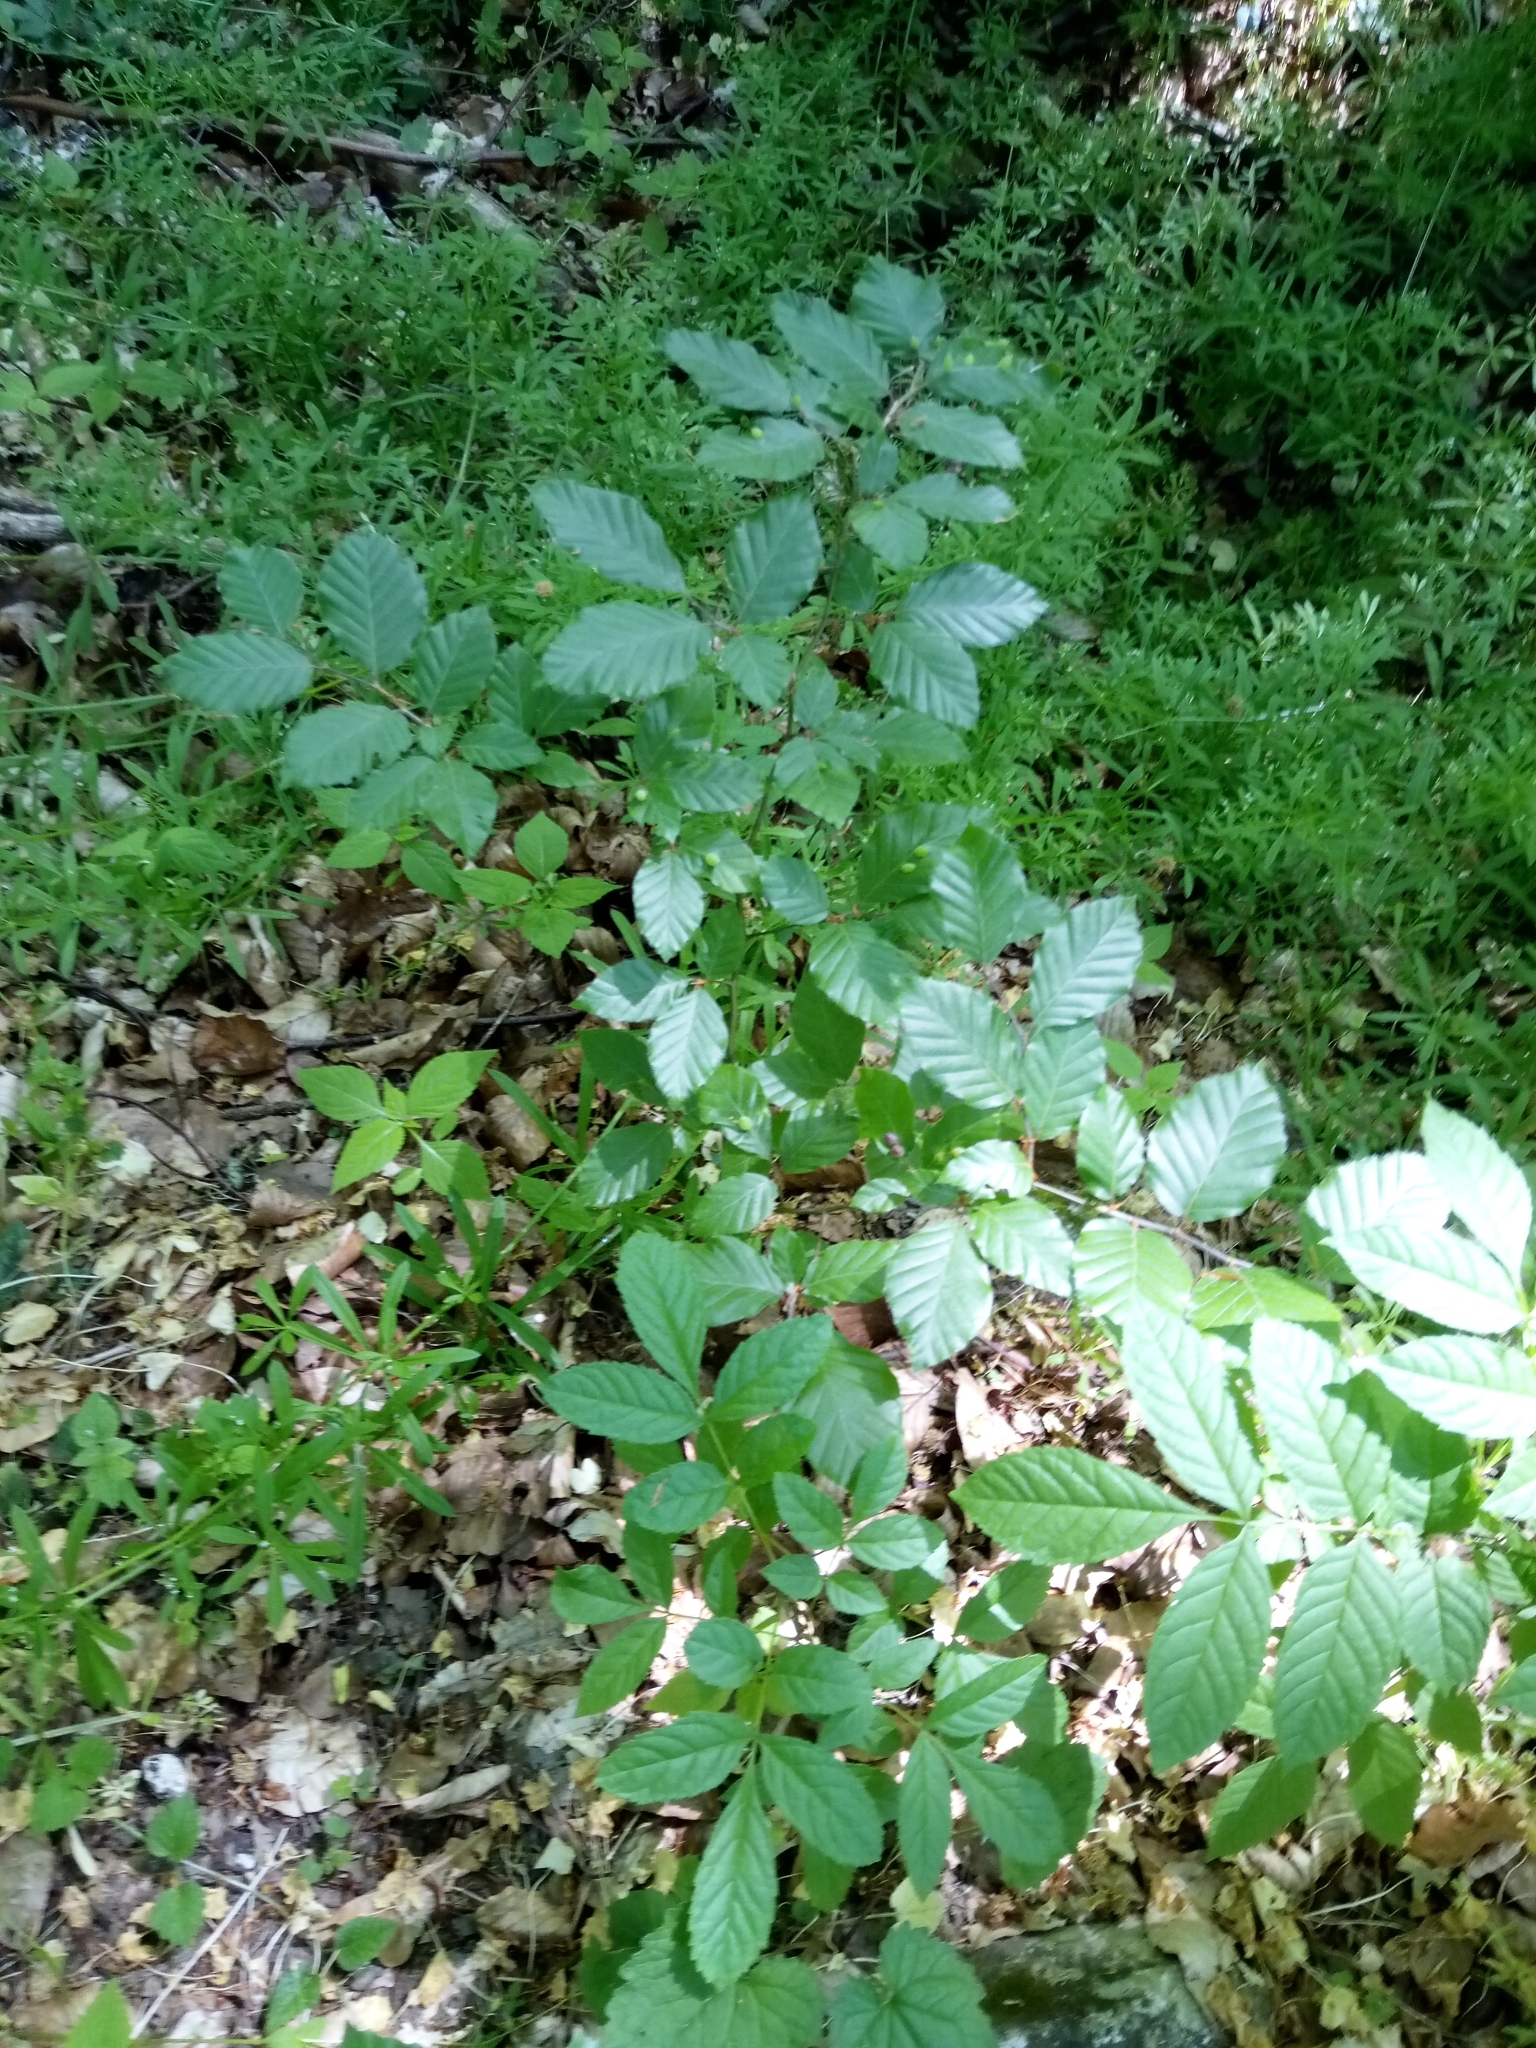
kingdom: Plantae
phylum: Tracheophyta
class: Magnoliopsida
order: Fagales
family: Fagaceae
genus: Fagus
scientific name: Fagus sylvatica
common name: Beech
